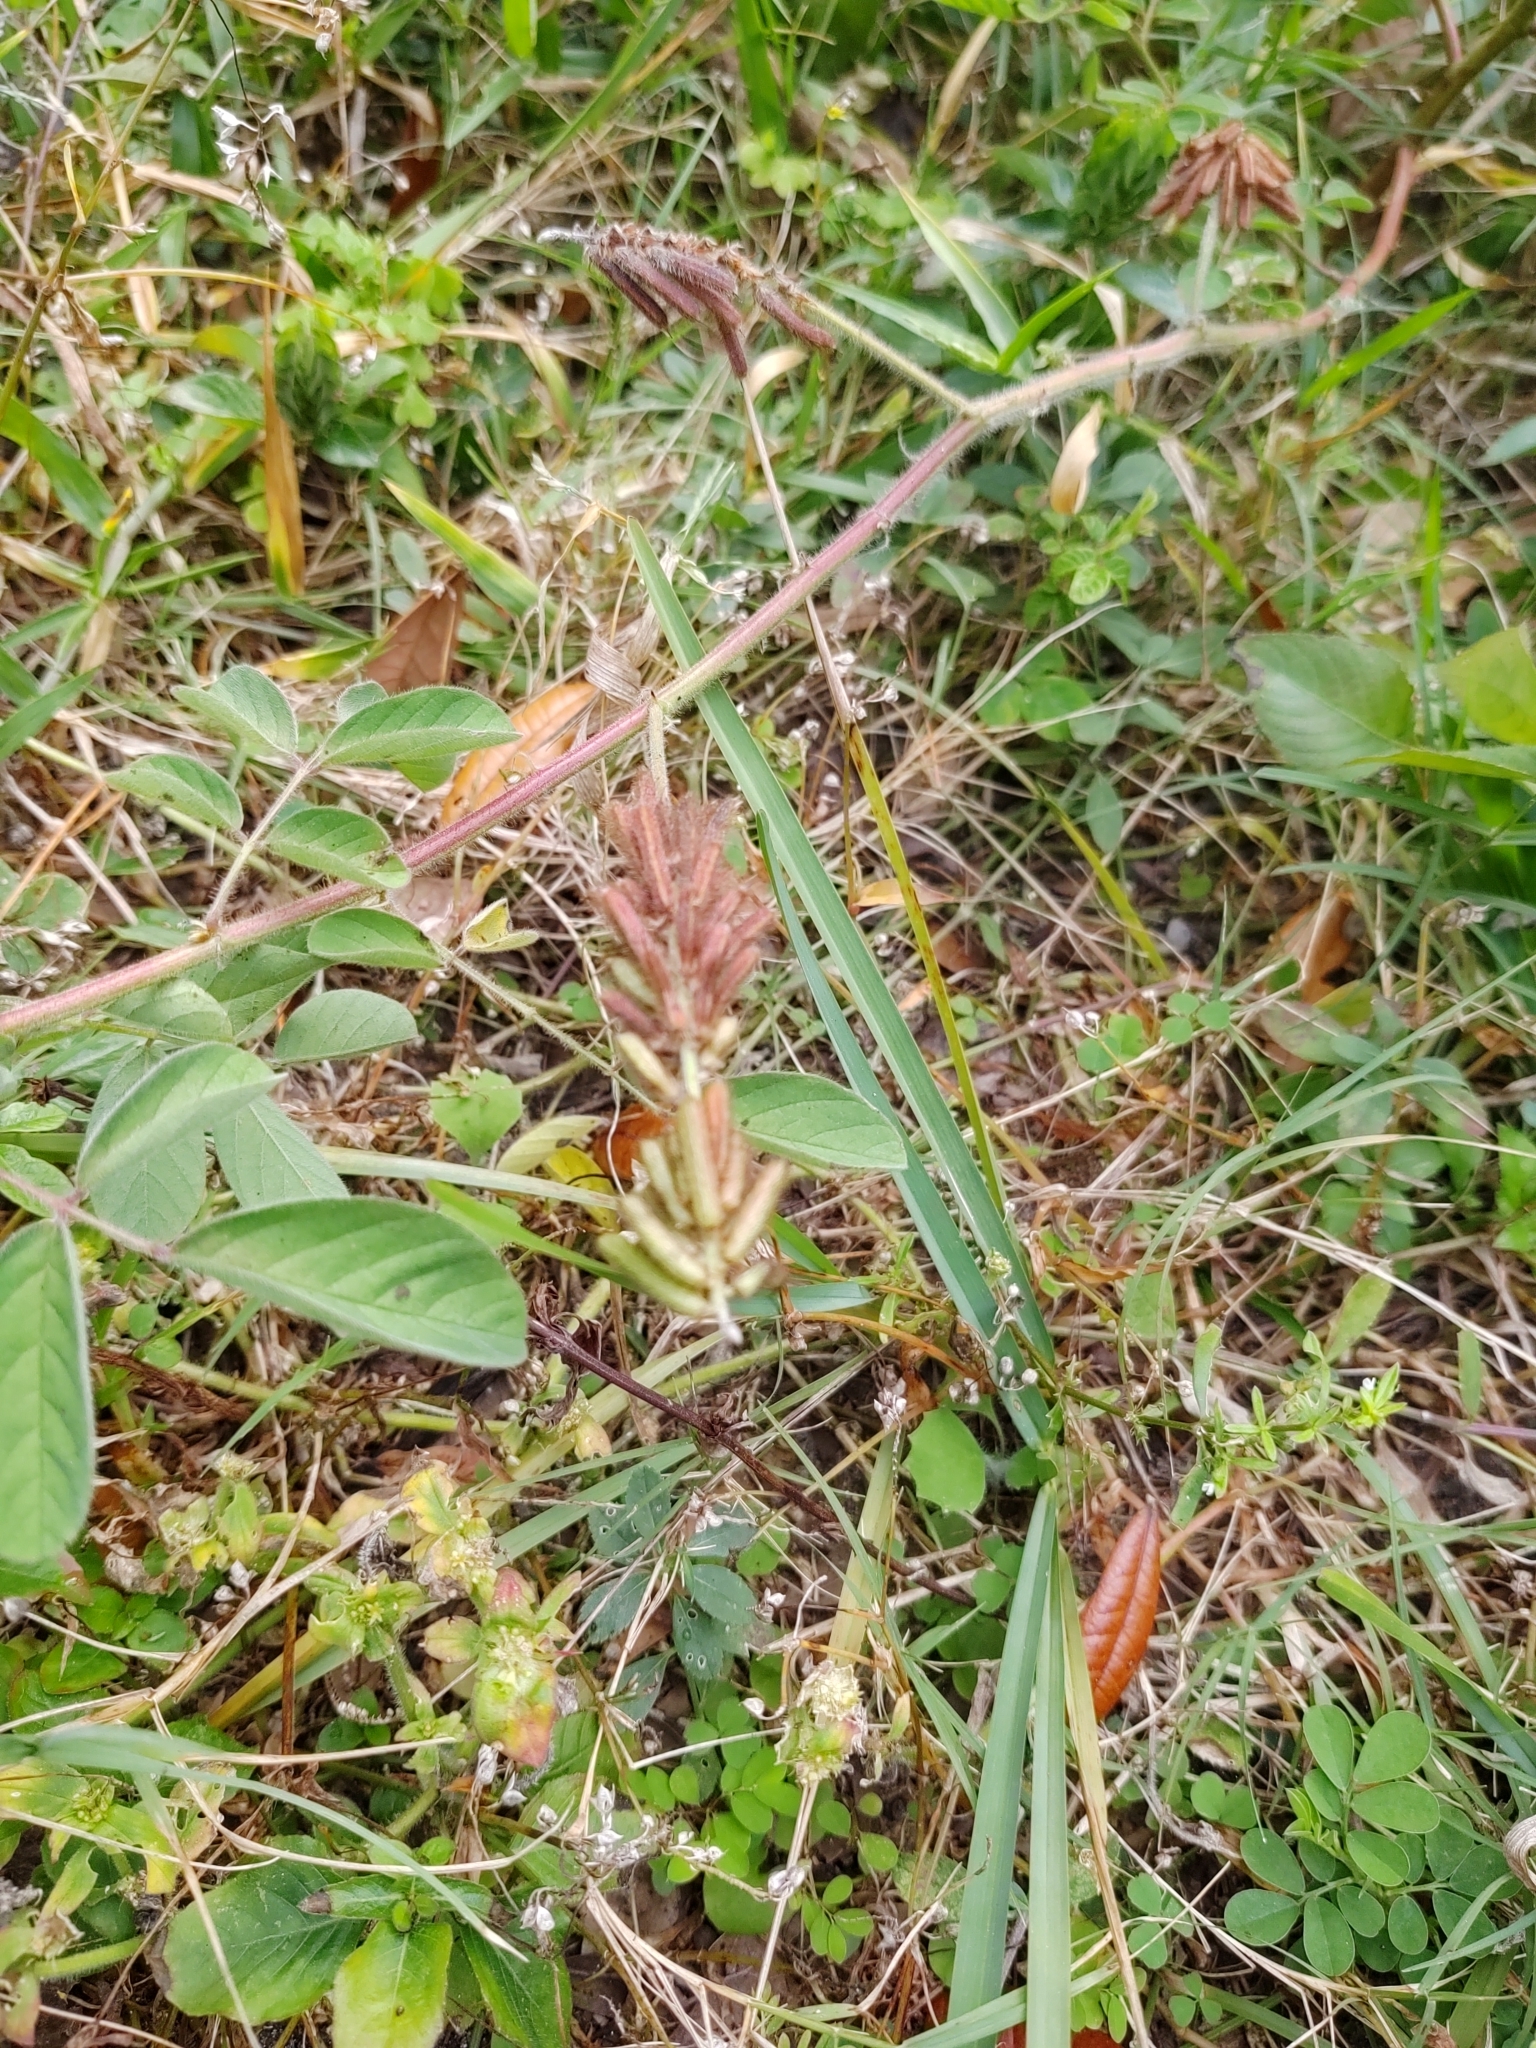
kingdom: Plantae
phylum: Tracheophyta
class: Magnoliopsida
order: Fabales
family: Fabaceae
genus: Indigofera
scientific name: Indigofera spicata
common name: Creeping indigo
